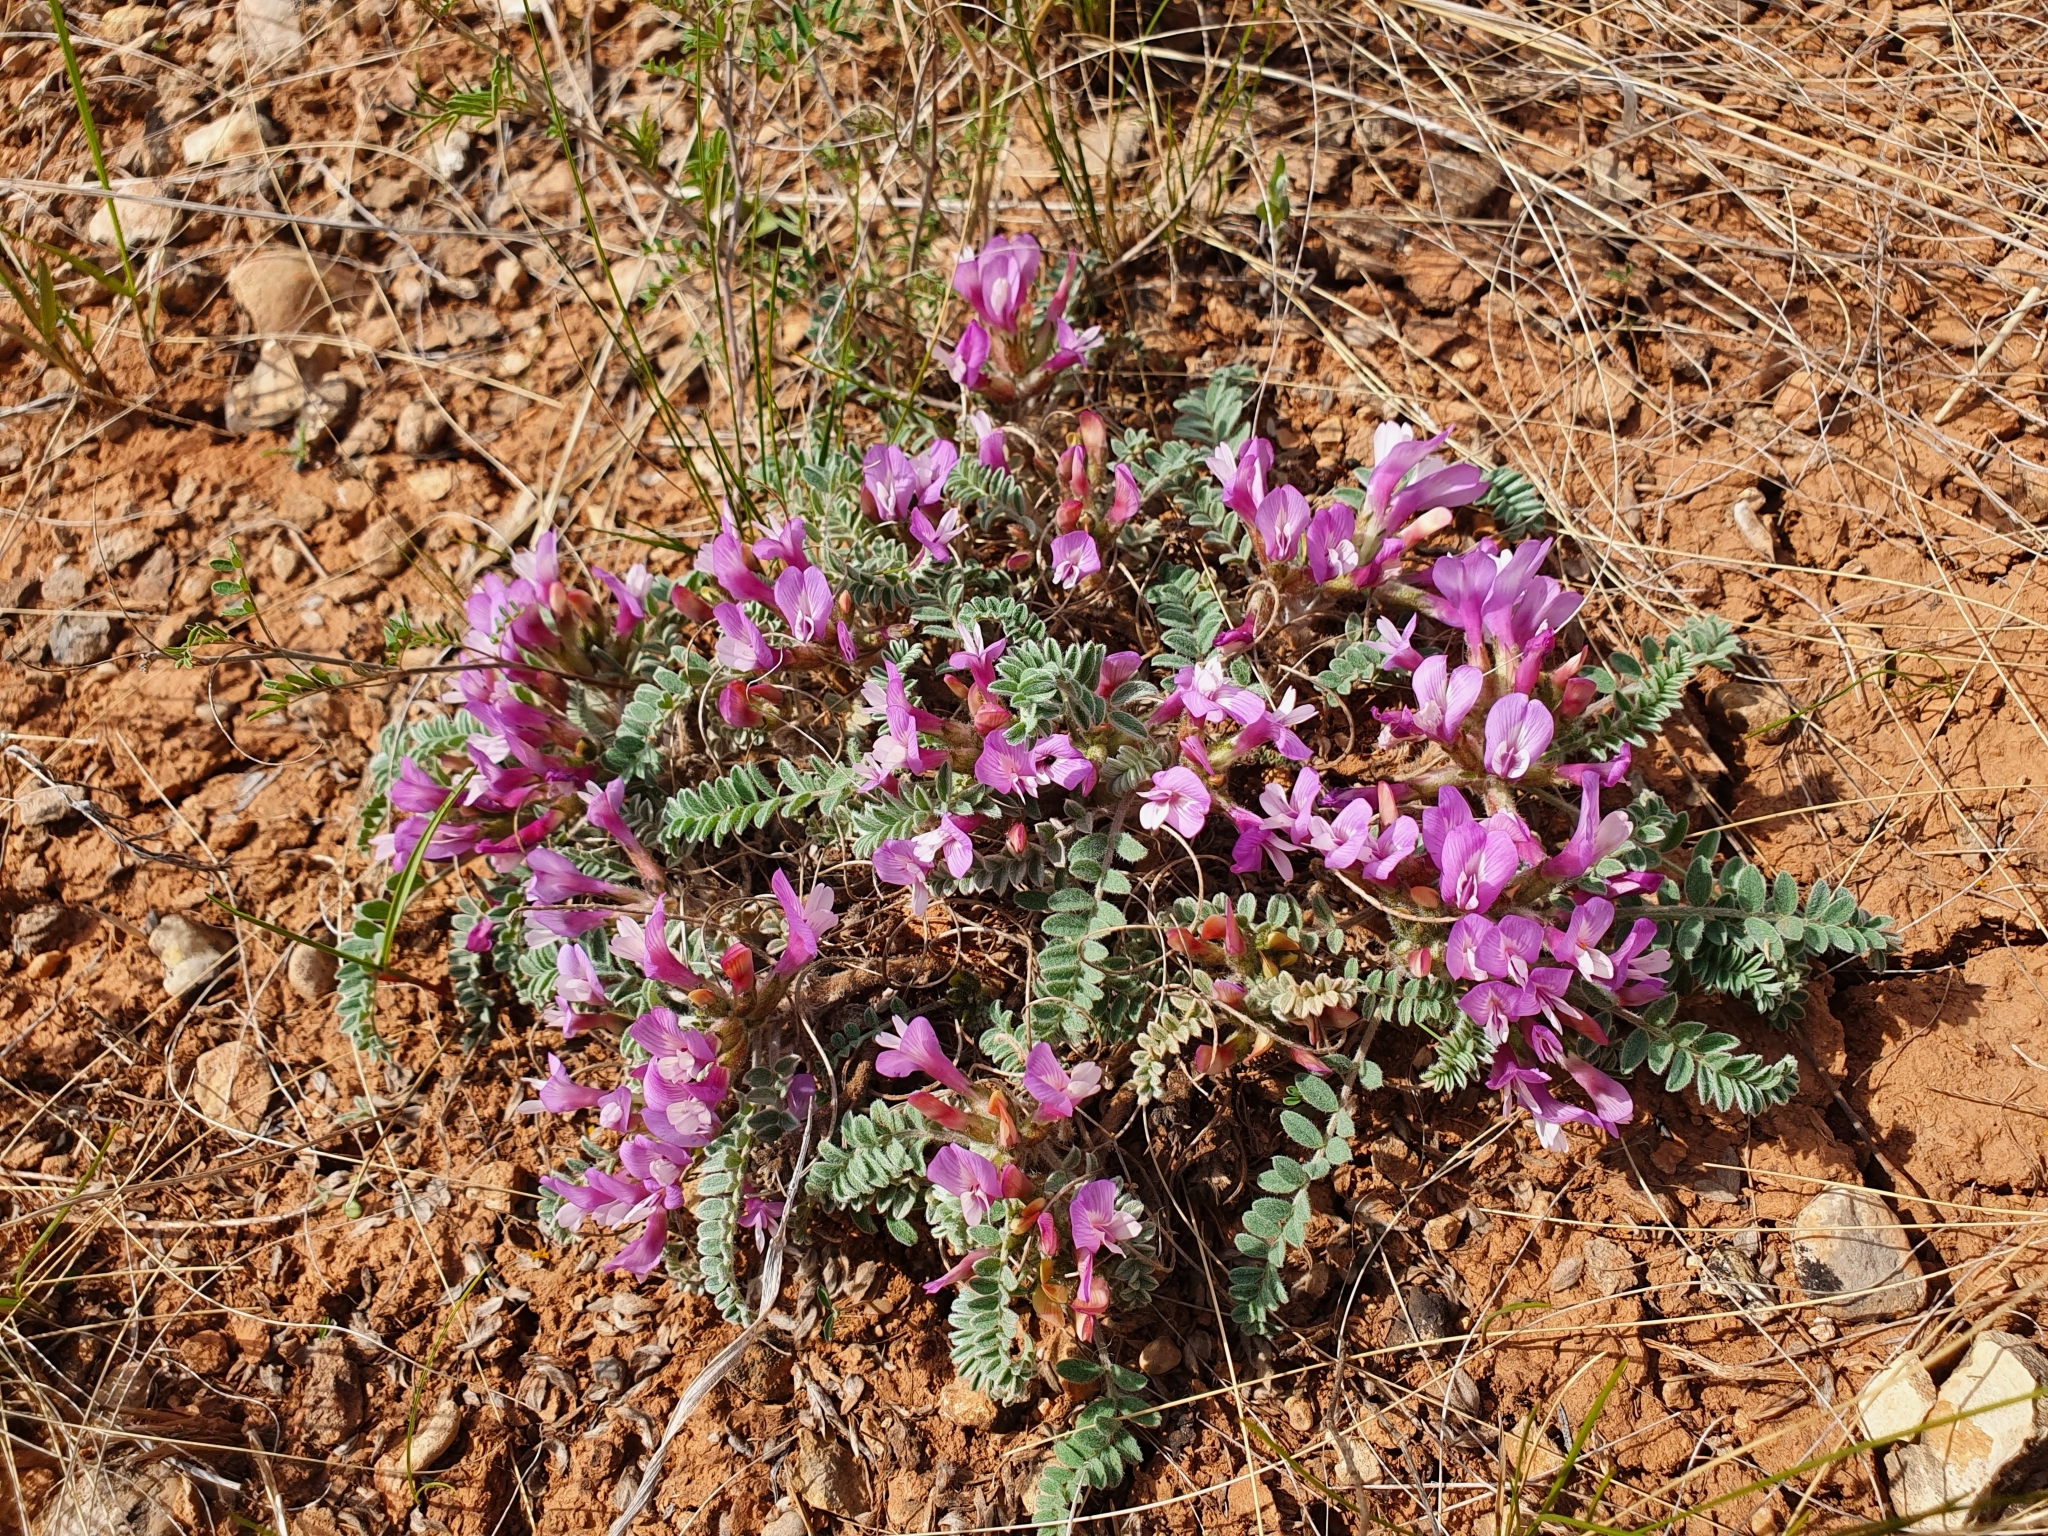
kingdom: Plantae
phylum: Tracheophyta
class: Magnoliopsida
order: Fabales
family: Fabaceae
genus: Astragalus
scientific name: Astragalus testiculatus
